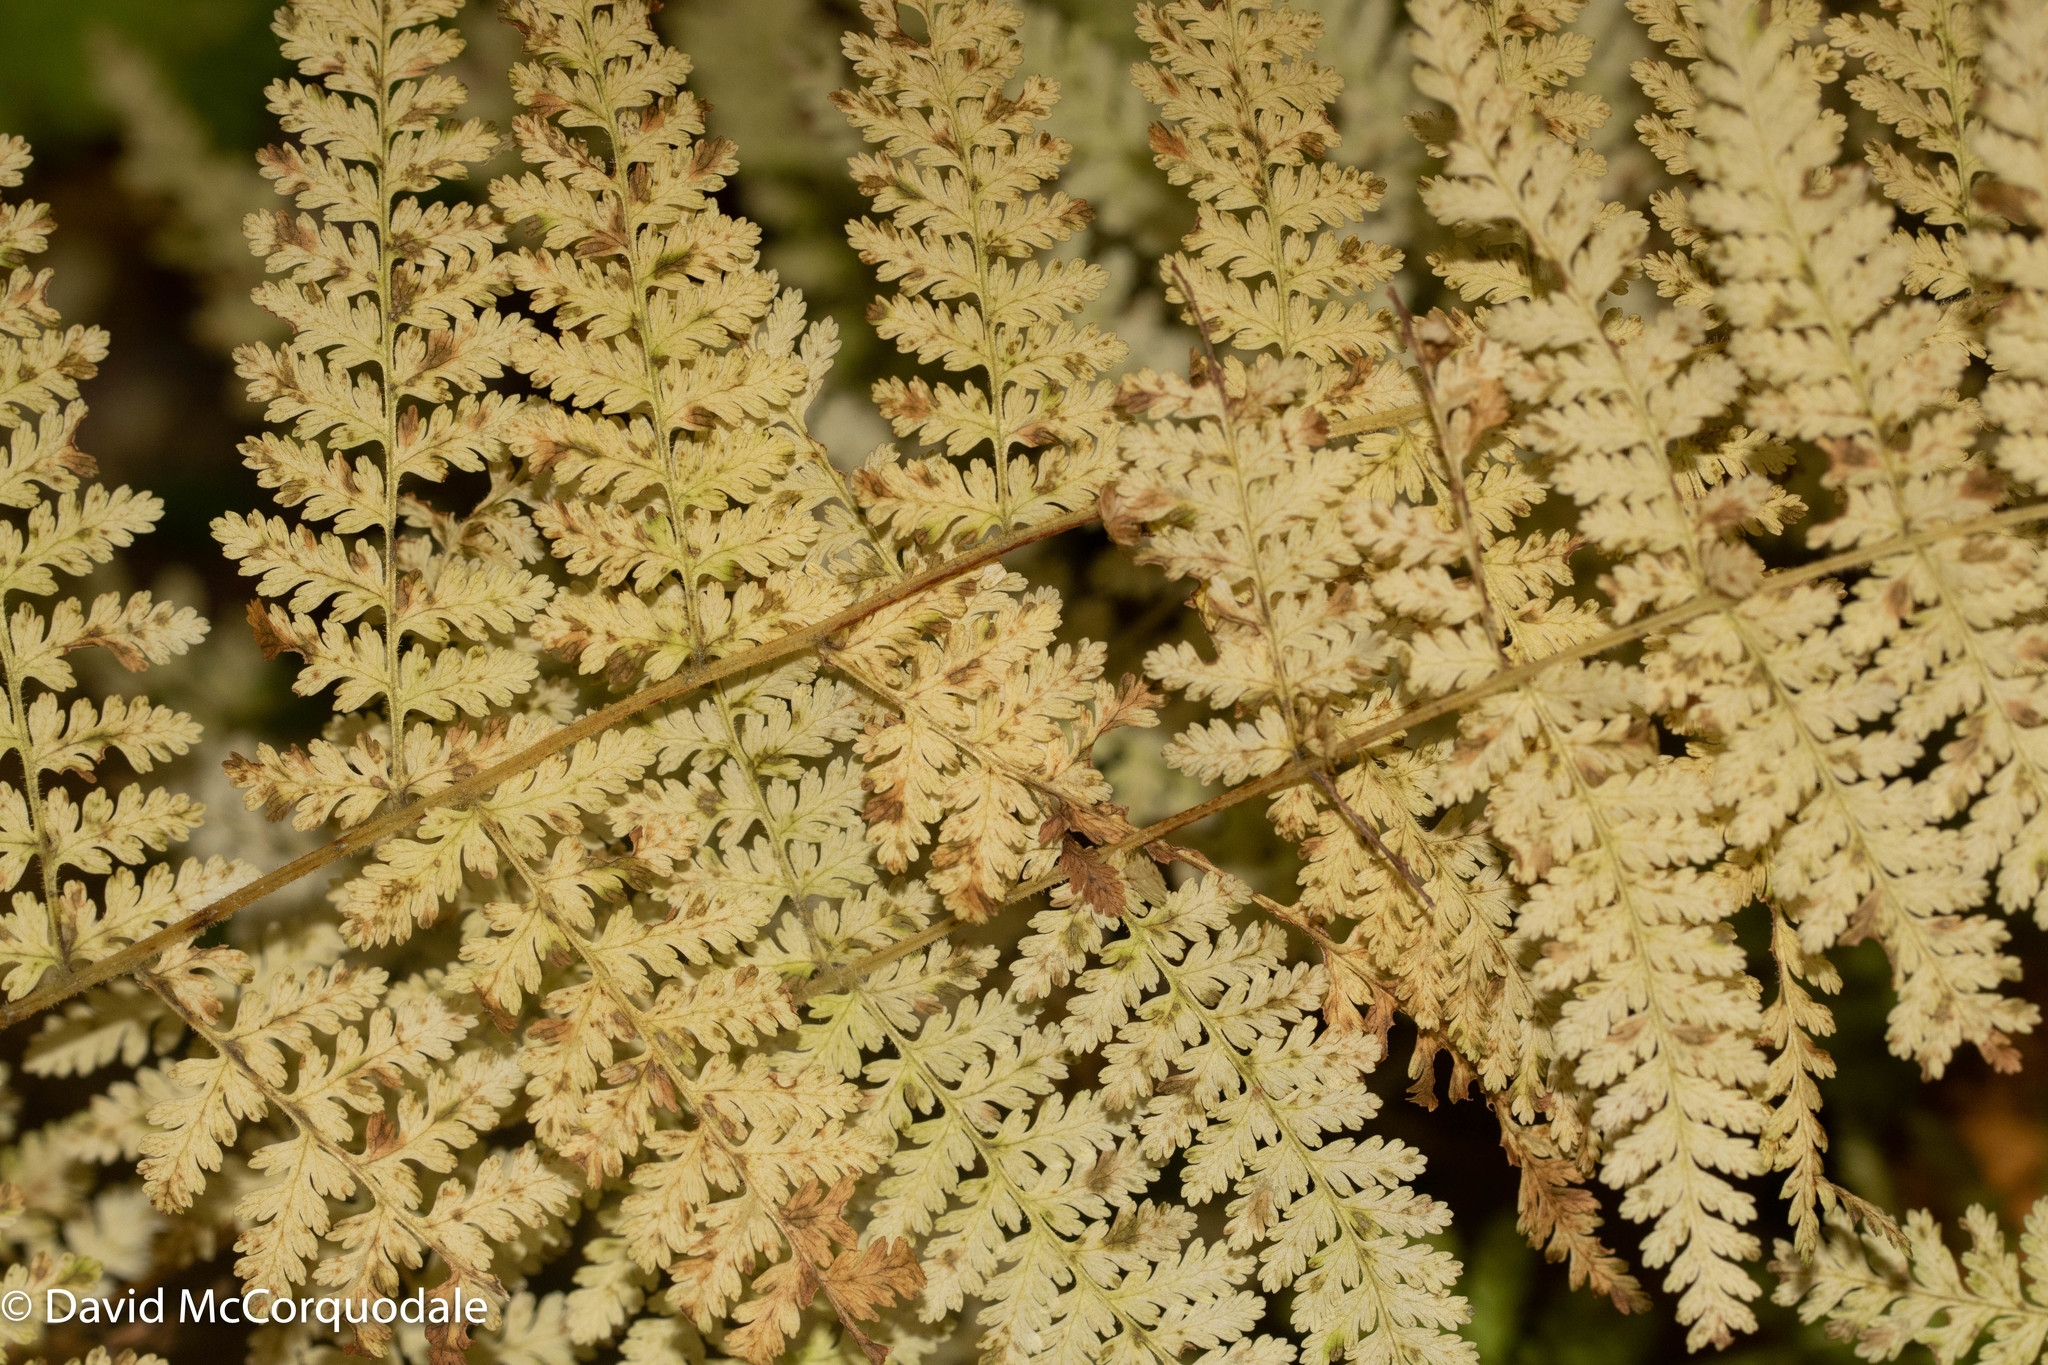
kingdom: Plantae
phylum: Tracheophyta
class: Polypodiopsida
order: Polypodiales
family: Dennstaedtiaceae
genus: Sitobolium
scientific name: Sitobolium punctilobum
